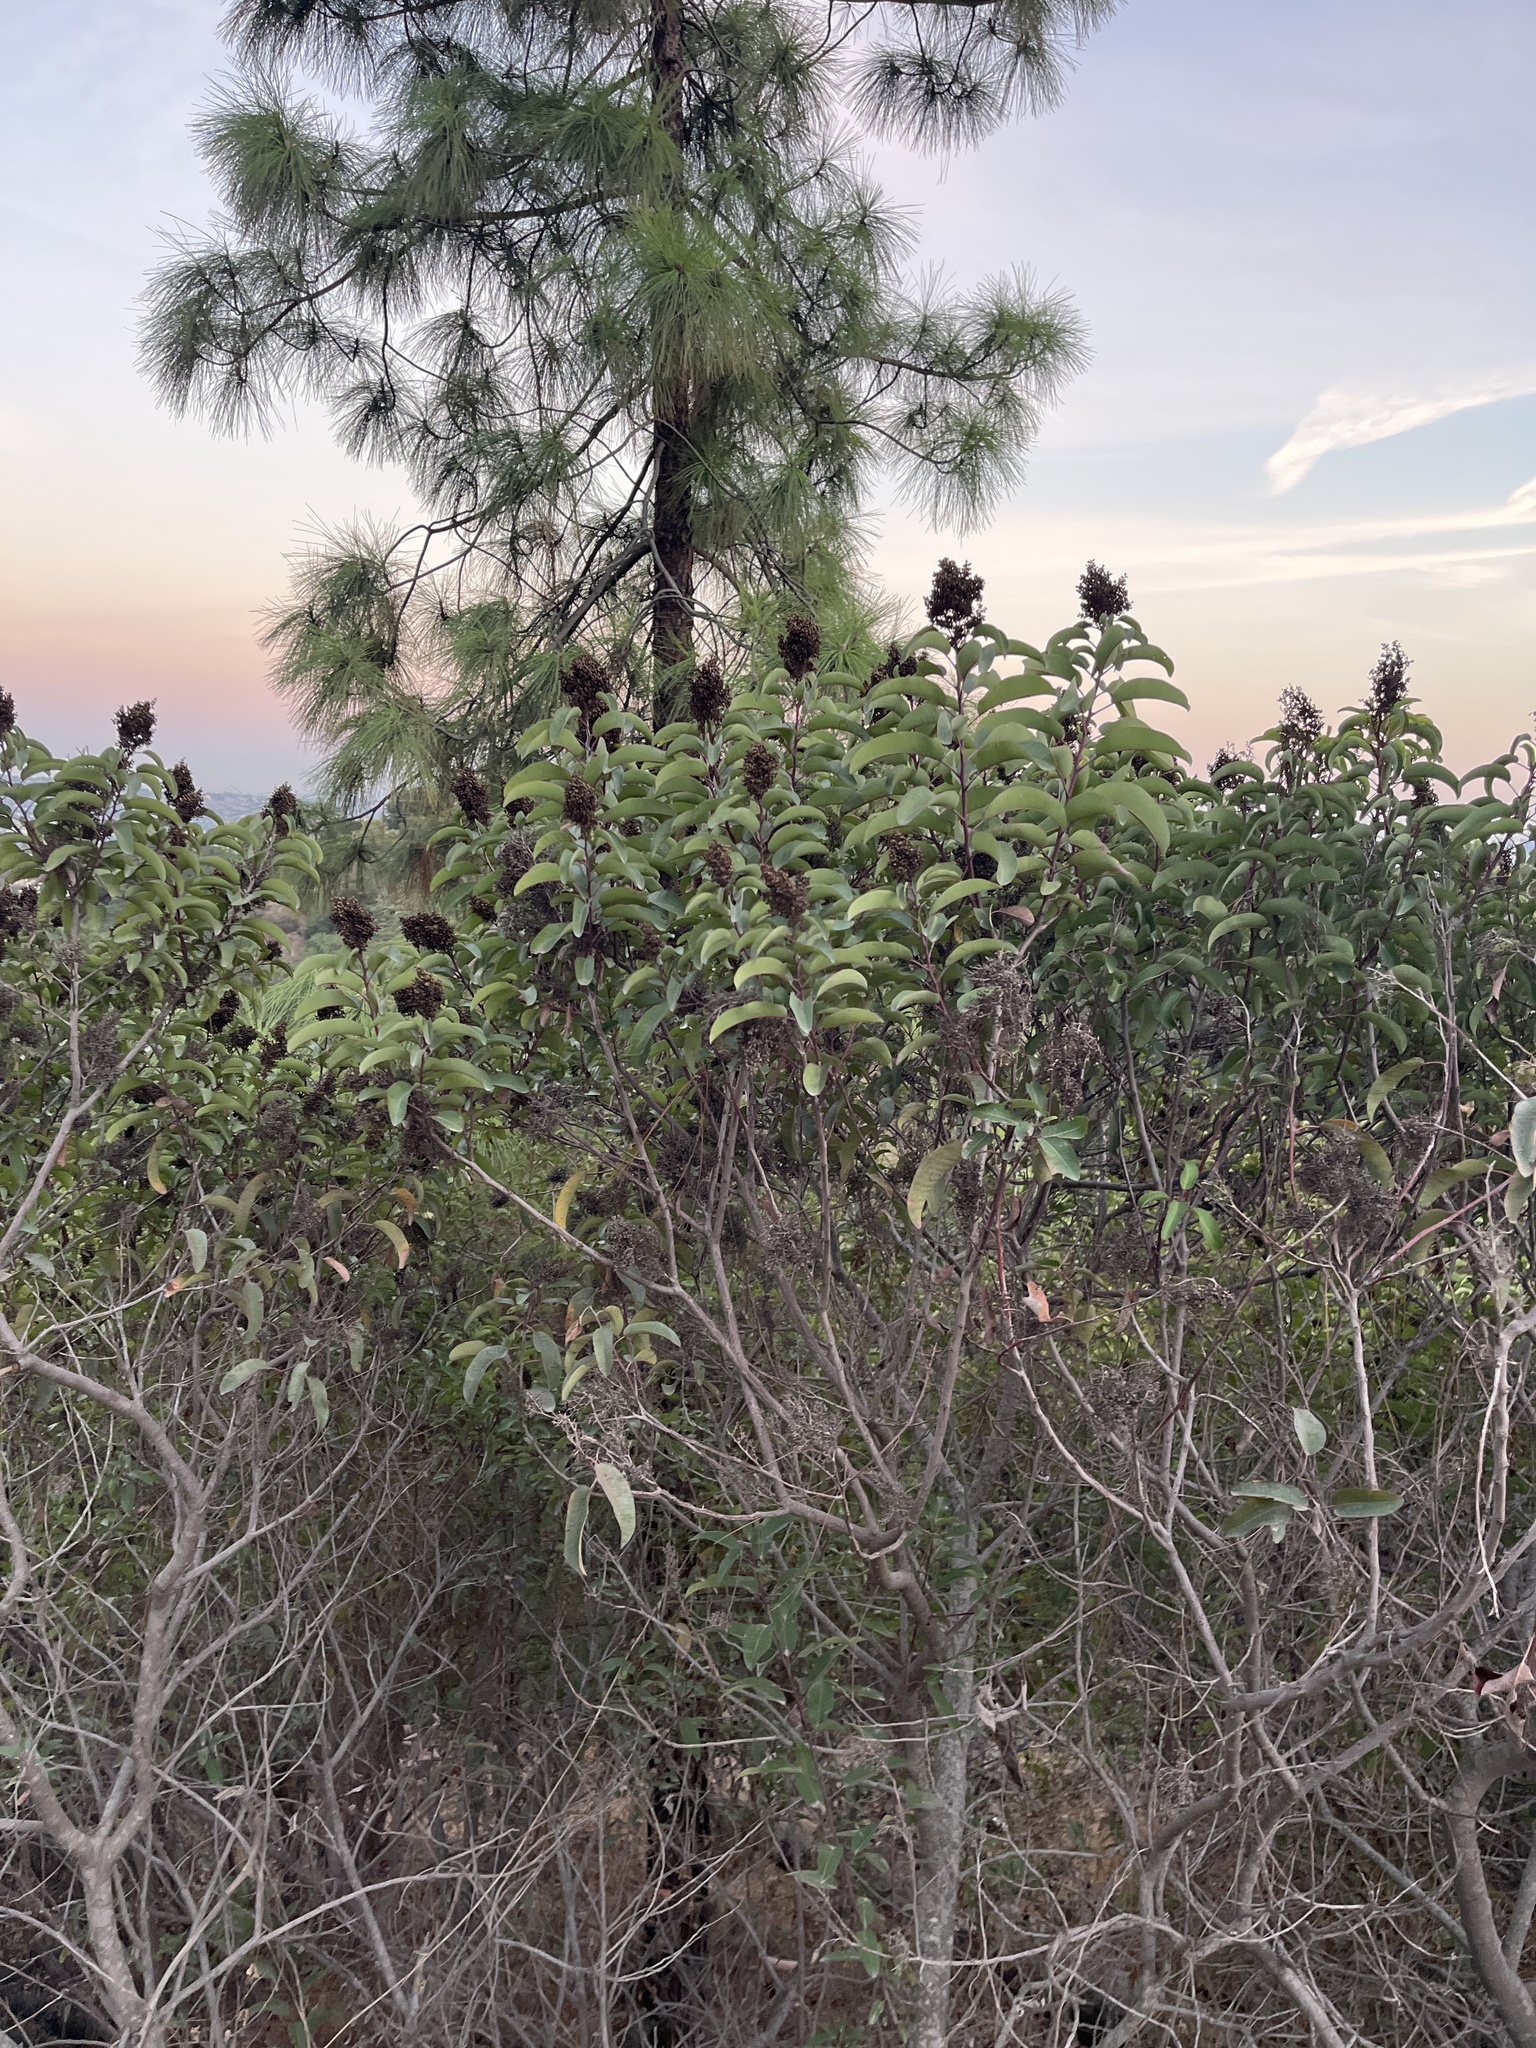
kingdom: Plantae
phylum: Tracheophyta
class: Magnoliopsida
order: Sapindales
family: Anacardiaceae
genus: Malosma
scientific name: Malosma laurina
